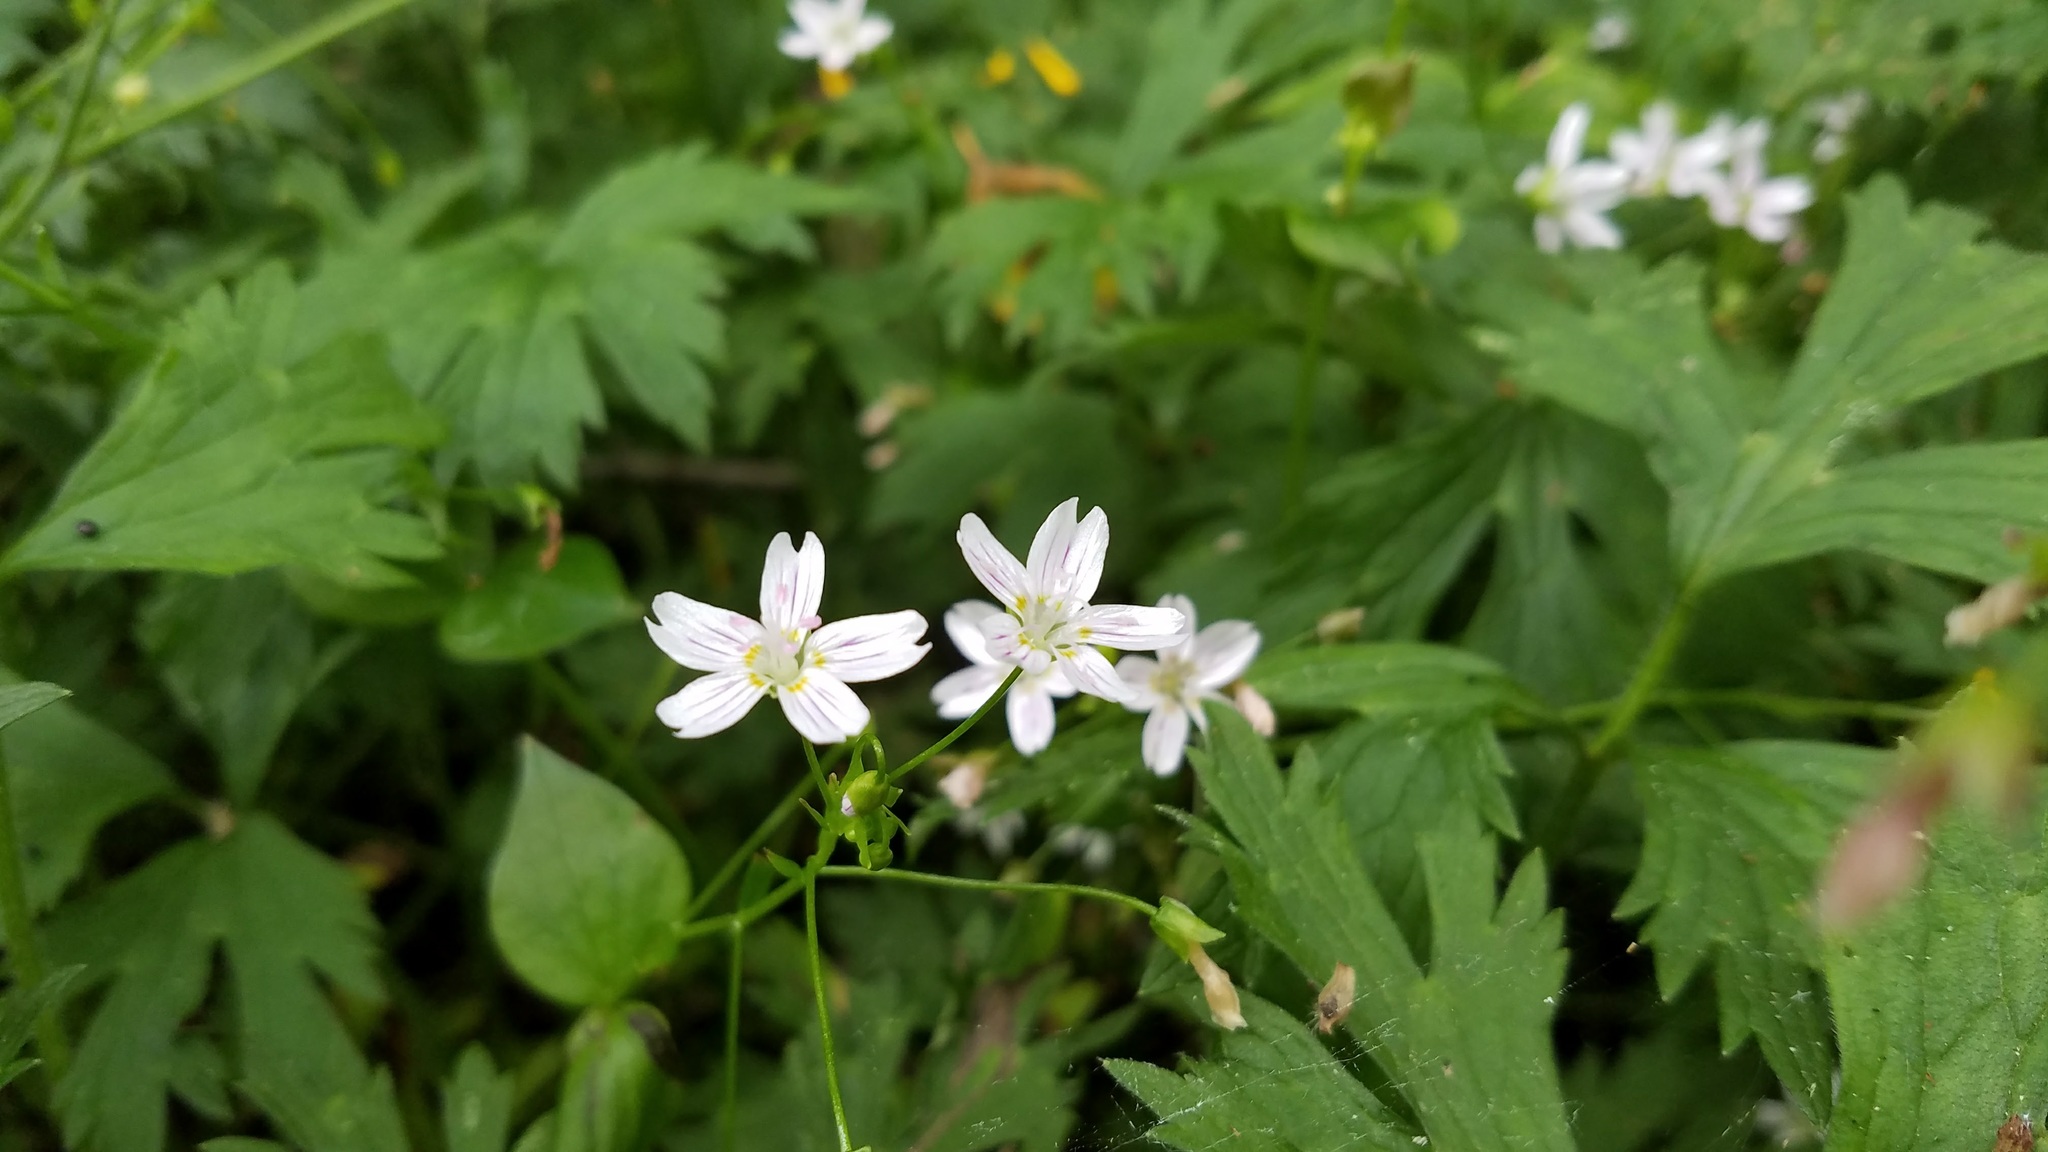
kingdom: Plantae
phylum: Tracheophyta
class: Magnoliopsida
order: Caryophyllales
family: Montiaceae
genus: Claytonia
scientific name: Claytonia sibirica
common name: Pink purslane
